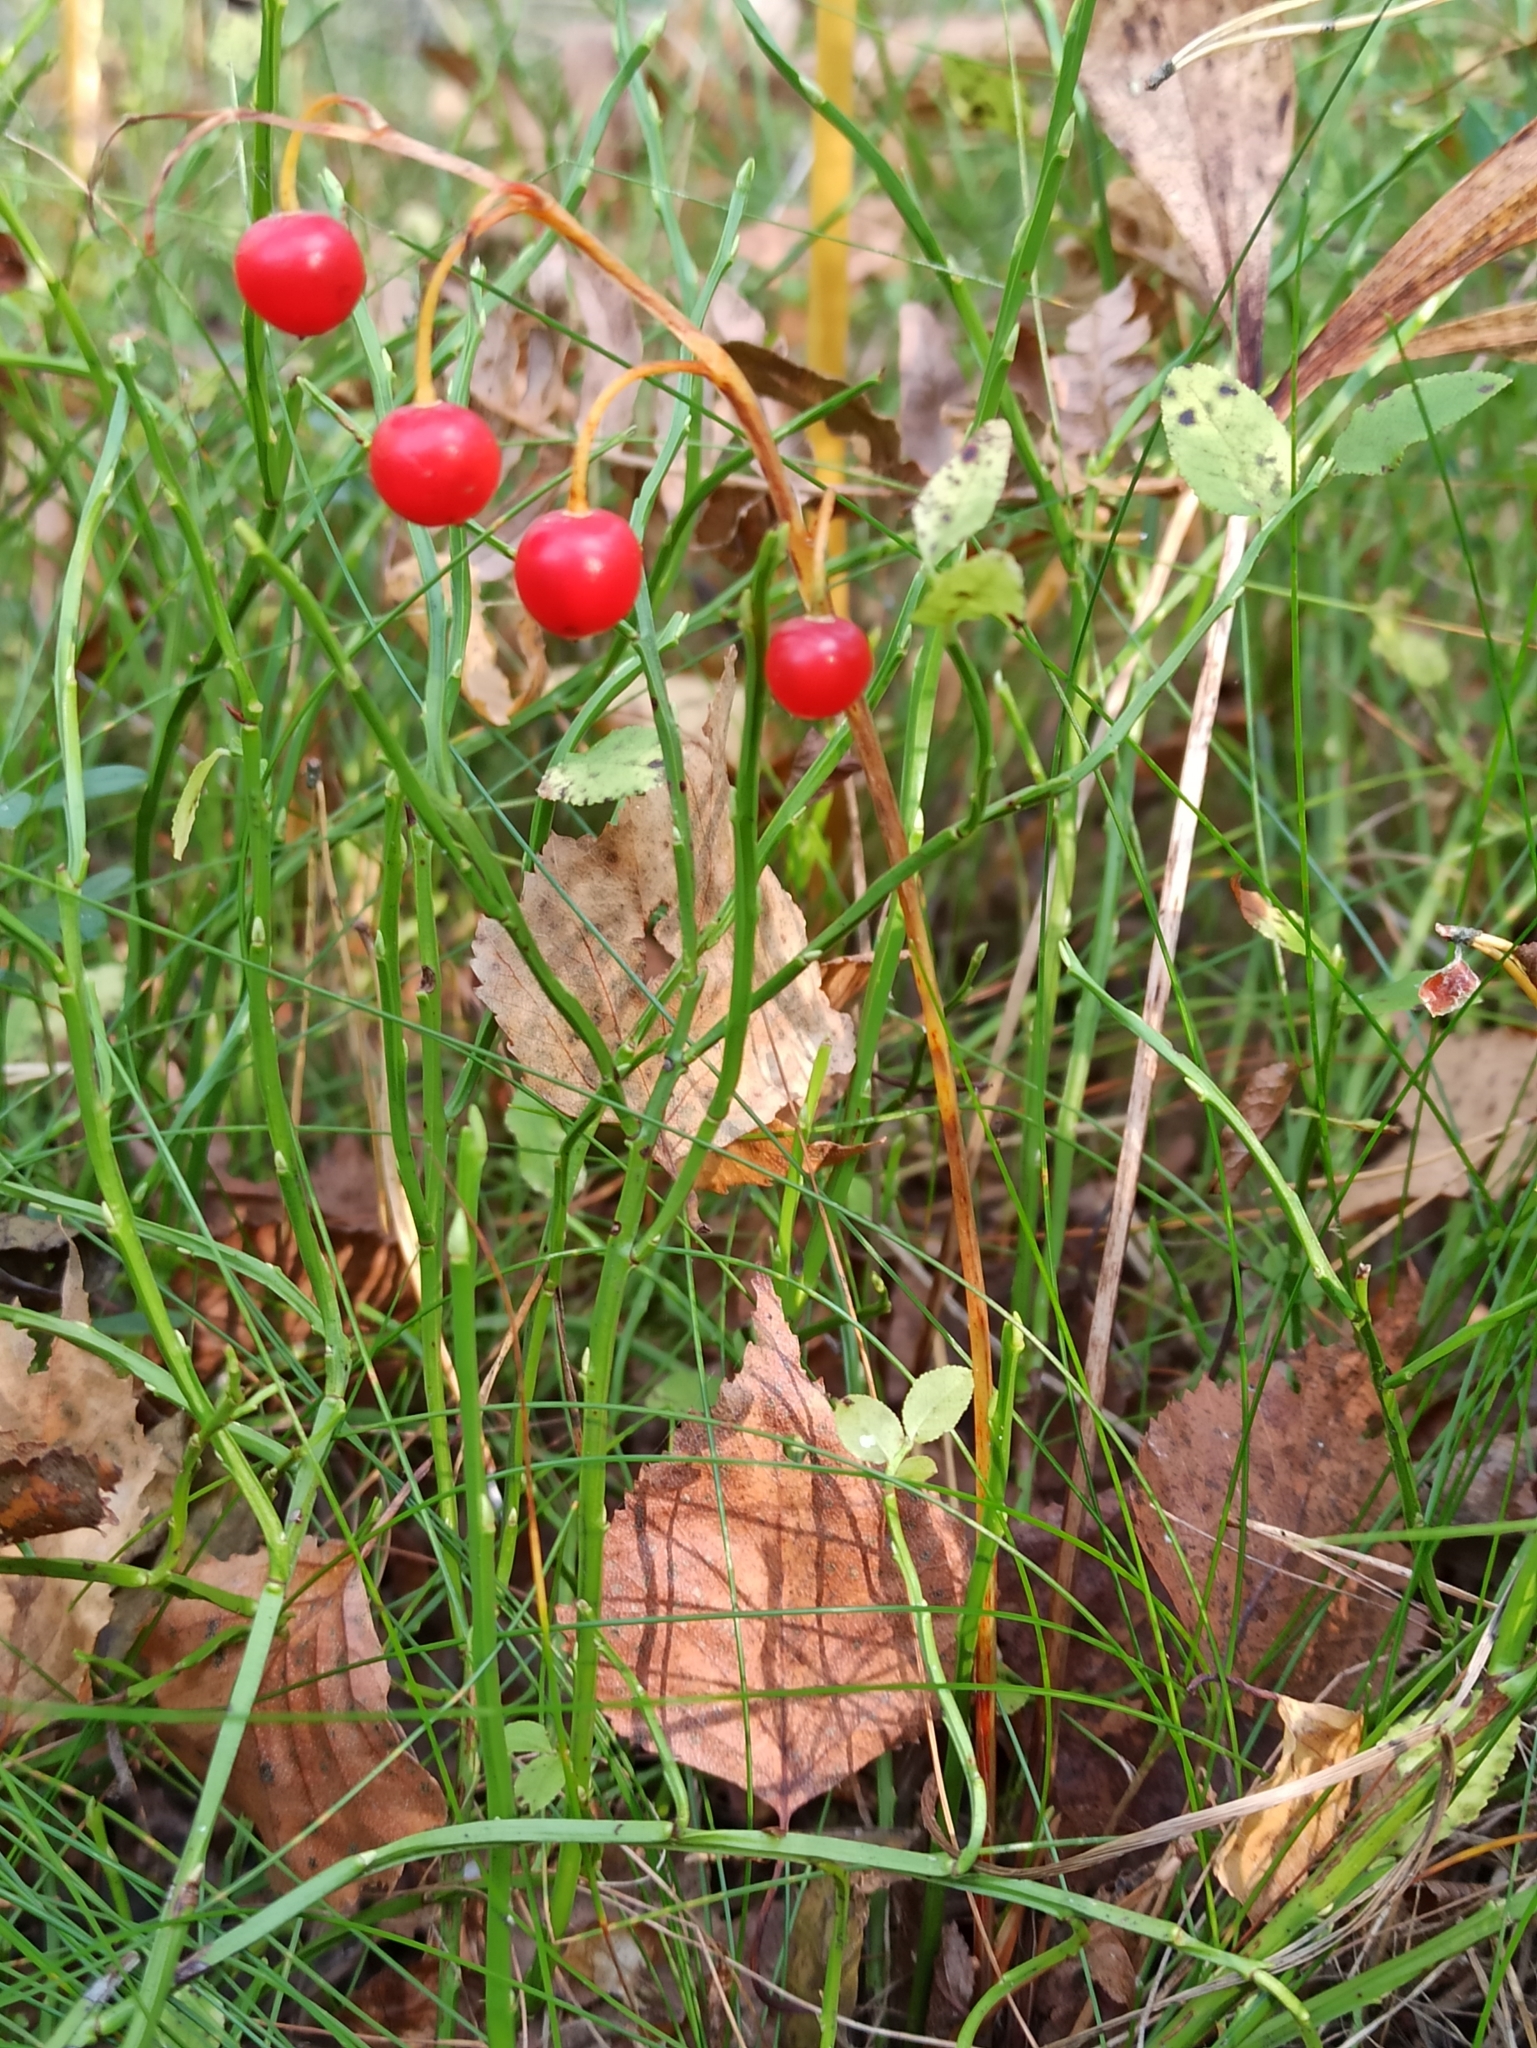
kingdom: Plantae
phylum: Tracheophyta
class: Liliopsida
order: Asparagales
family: Asparagaceae
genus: Convallaria
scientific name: Convallaria majalis
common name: Lily-of-the-valley
